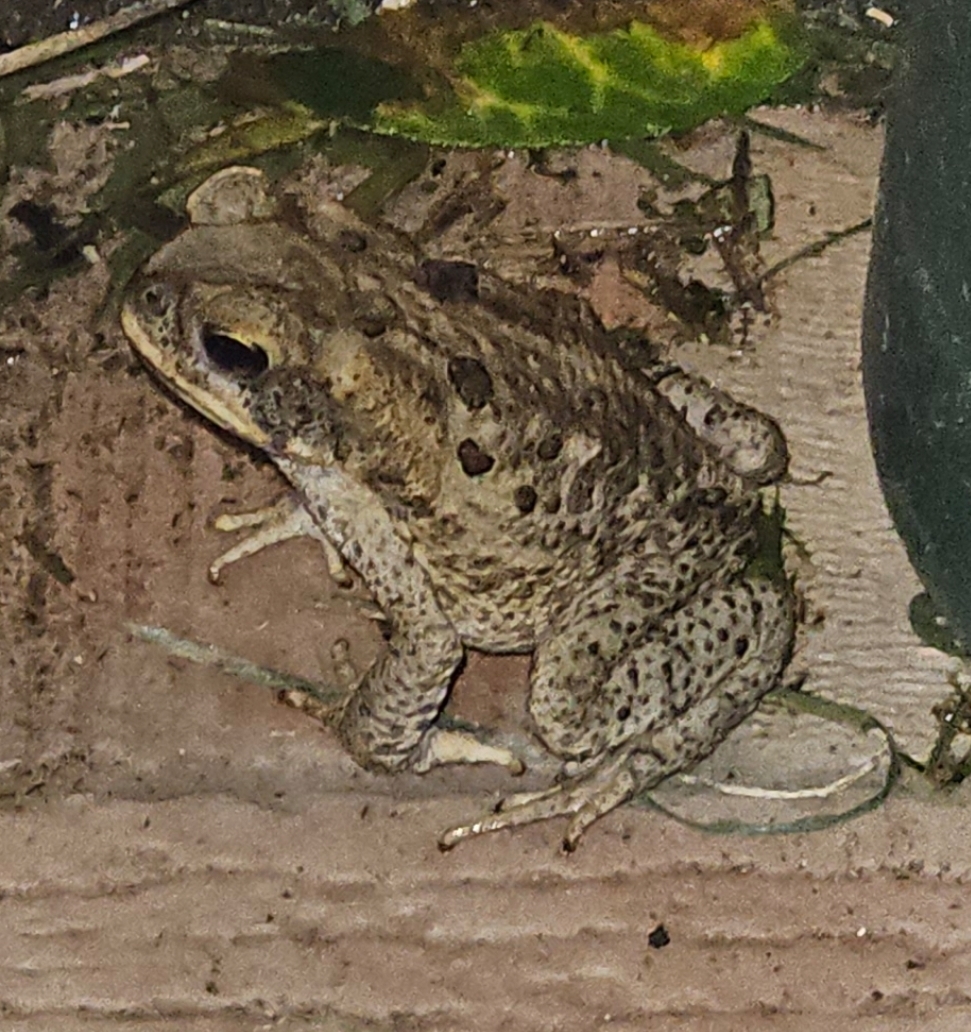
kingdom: Animalia
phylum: Chordata
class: Amphibia
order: Anura
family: Bufonidae
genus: Rhinella
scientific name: Rhinella marina
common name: Cane toad
